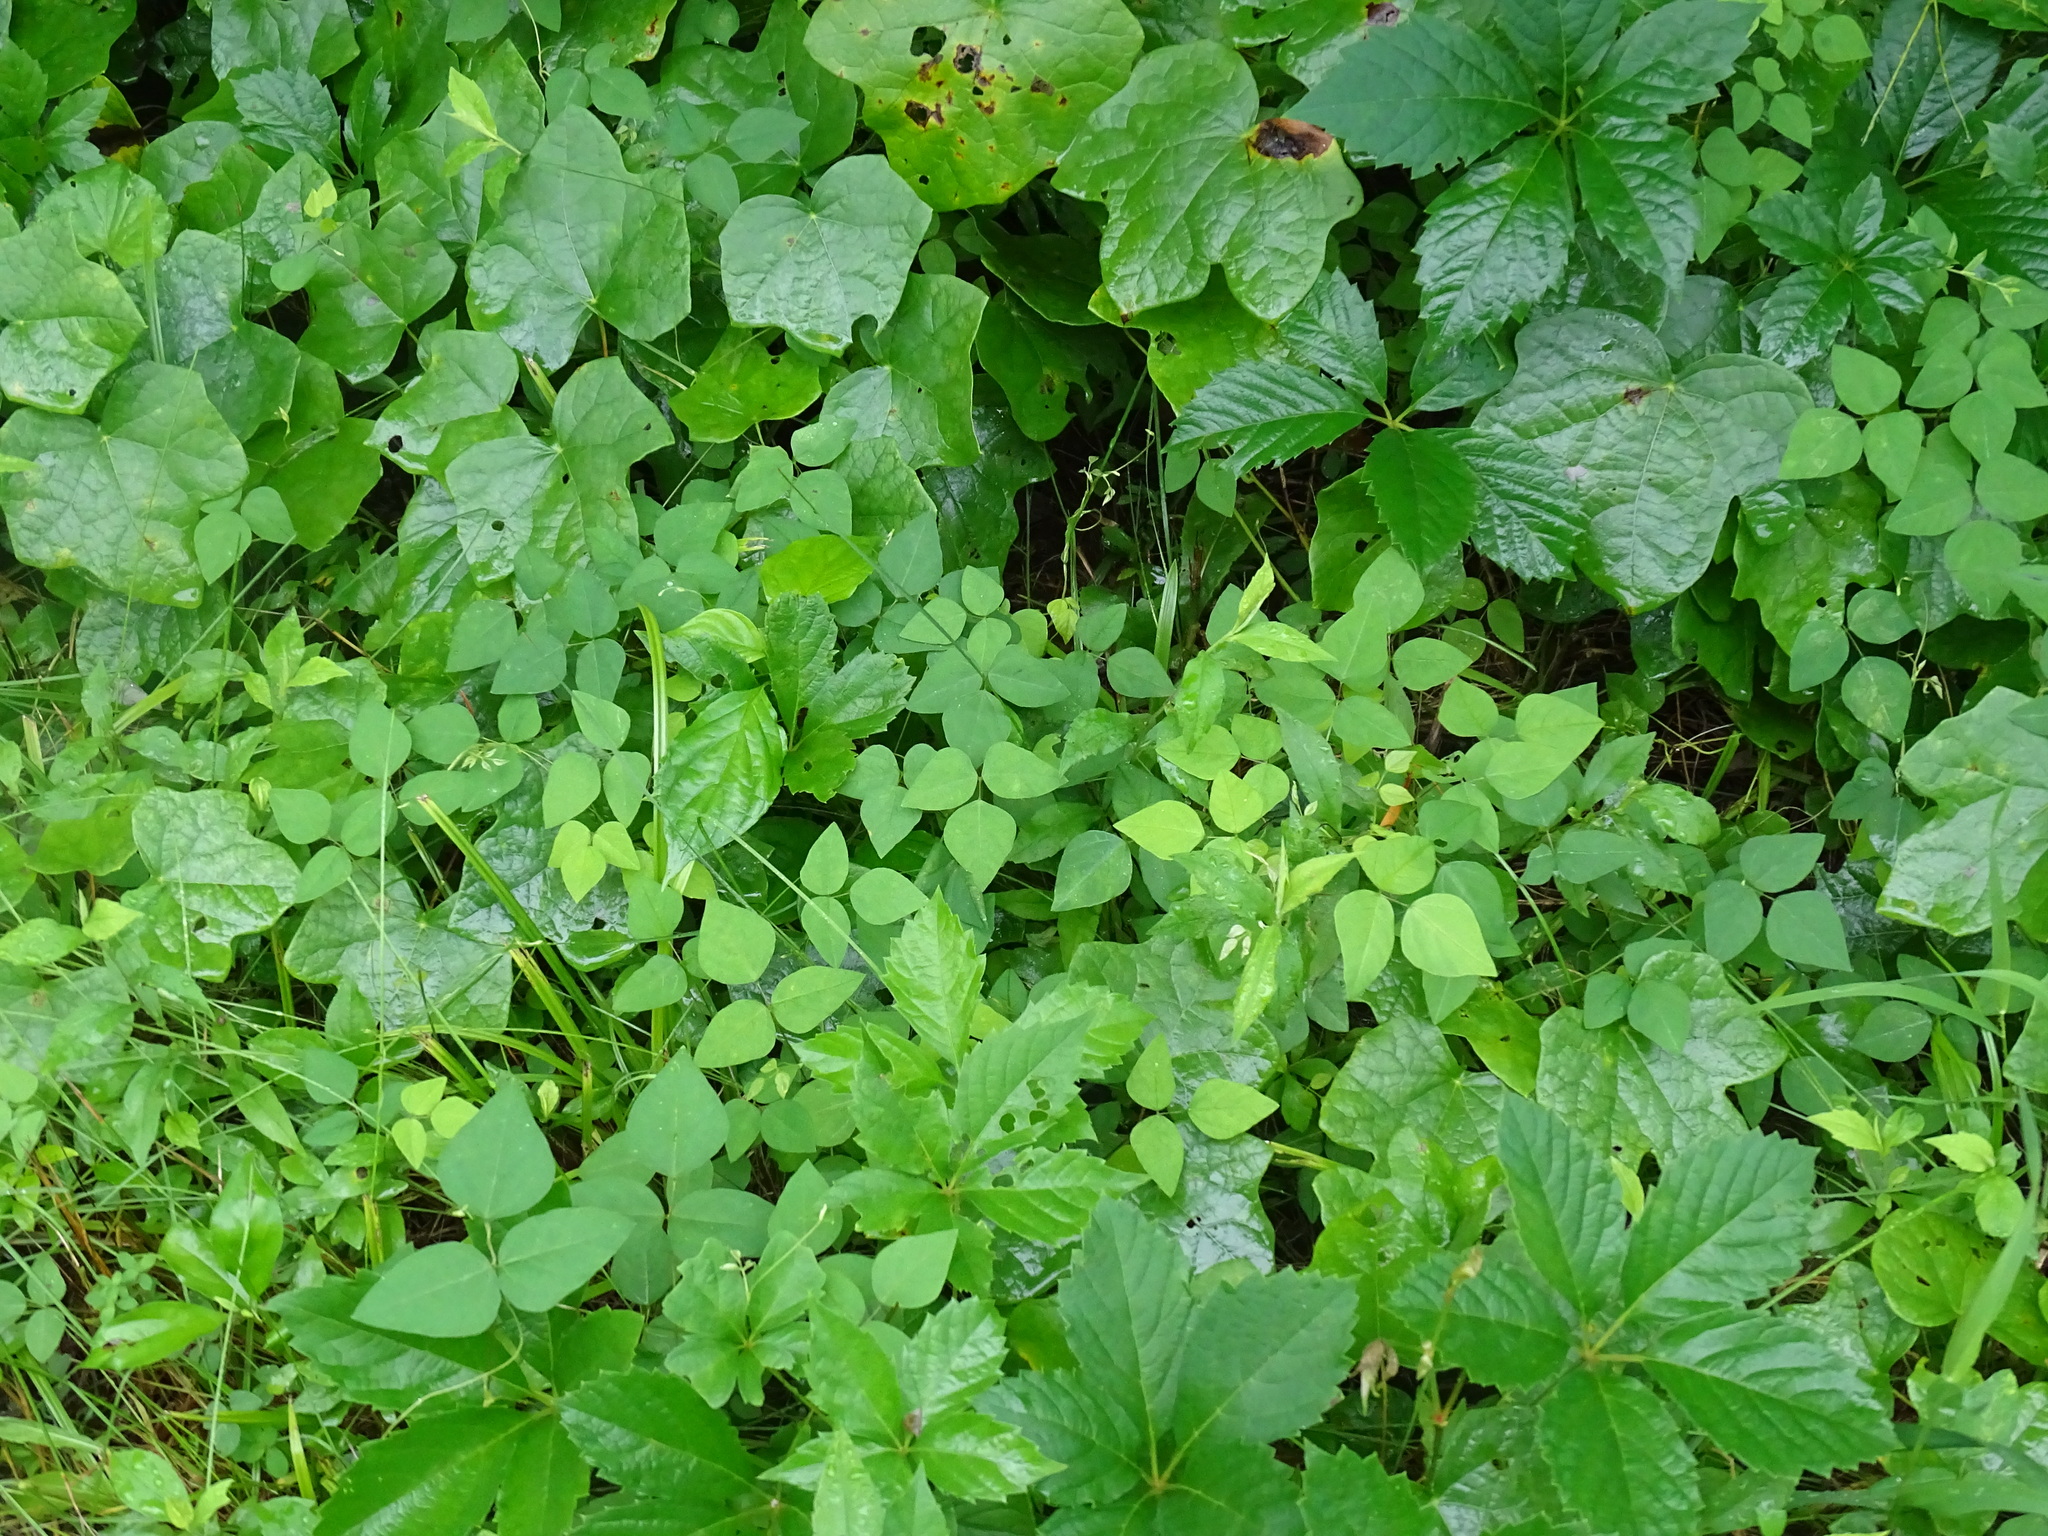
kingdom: Plantae
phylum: Tracheophyta
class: Magnoliopsida
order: Fabales
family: Fabaceae
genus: Amphicarpaea
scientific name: Amphicarpaea bracteata
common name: American hog peanut
